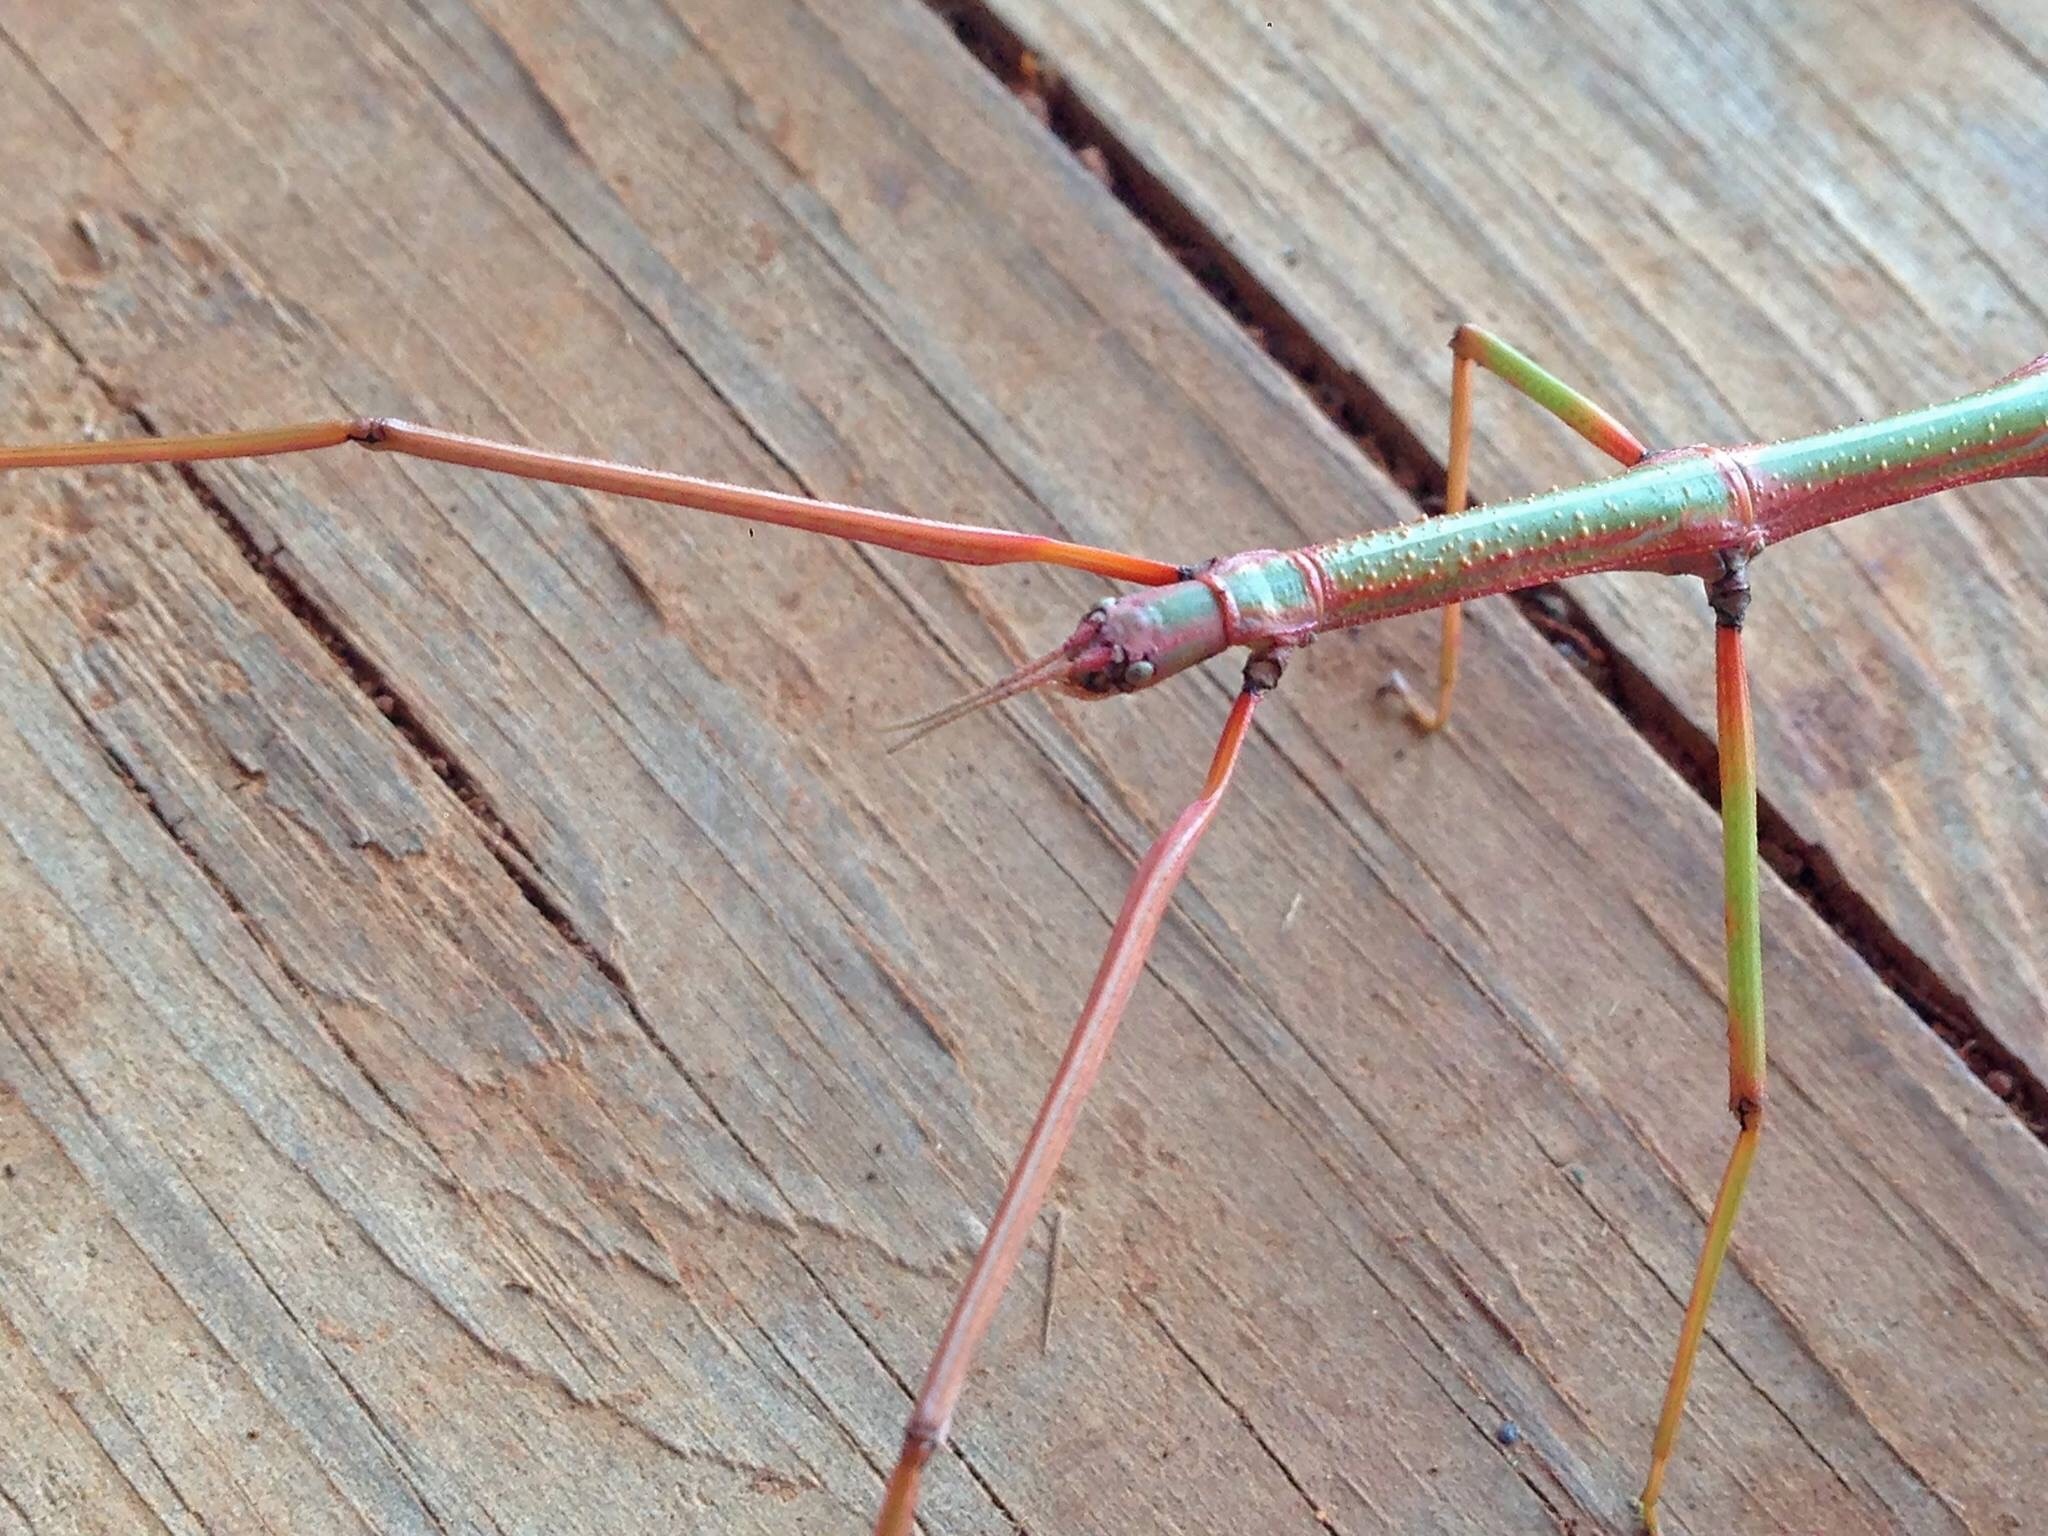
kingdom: Animalia
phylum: Arthropoda
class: Insecta
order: Phasmida
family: Bacillidae
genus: Bacillus
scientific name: Bacillus atticus
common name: Greek stick-insect
